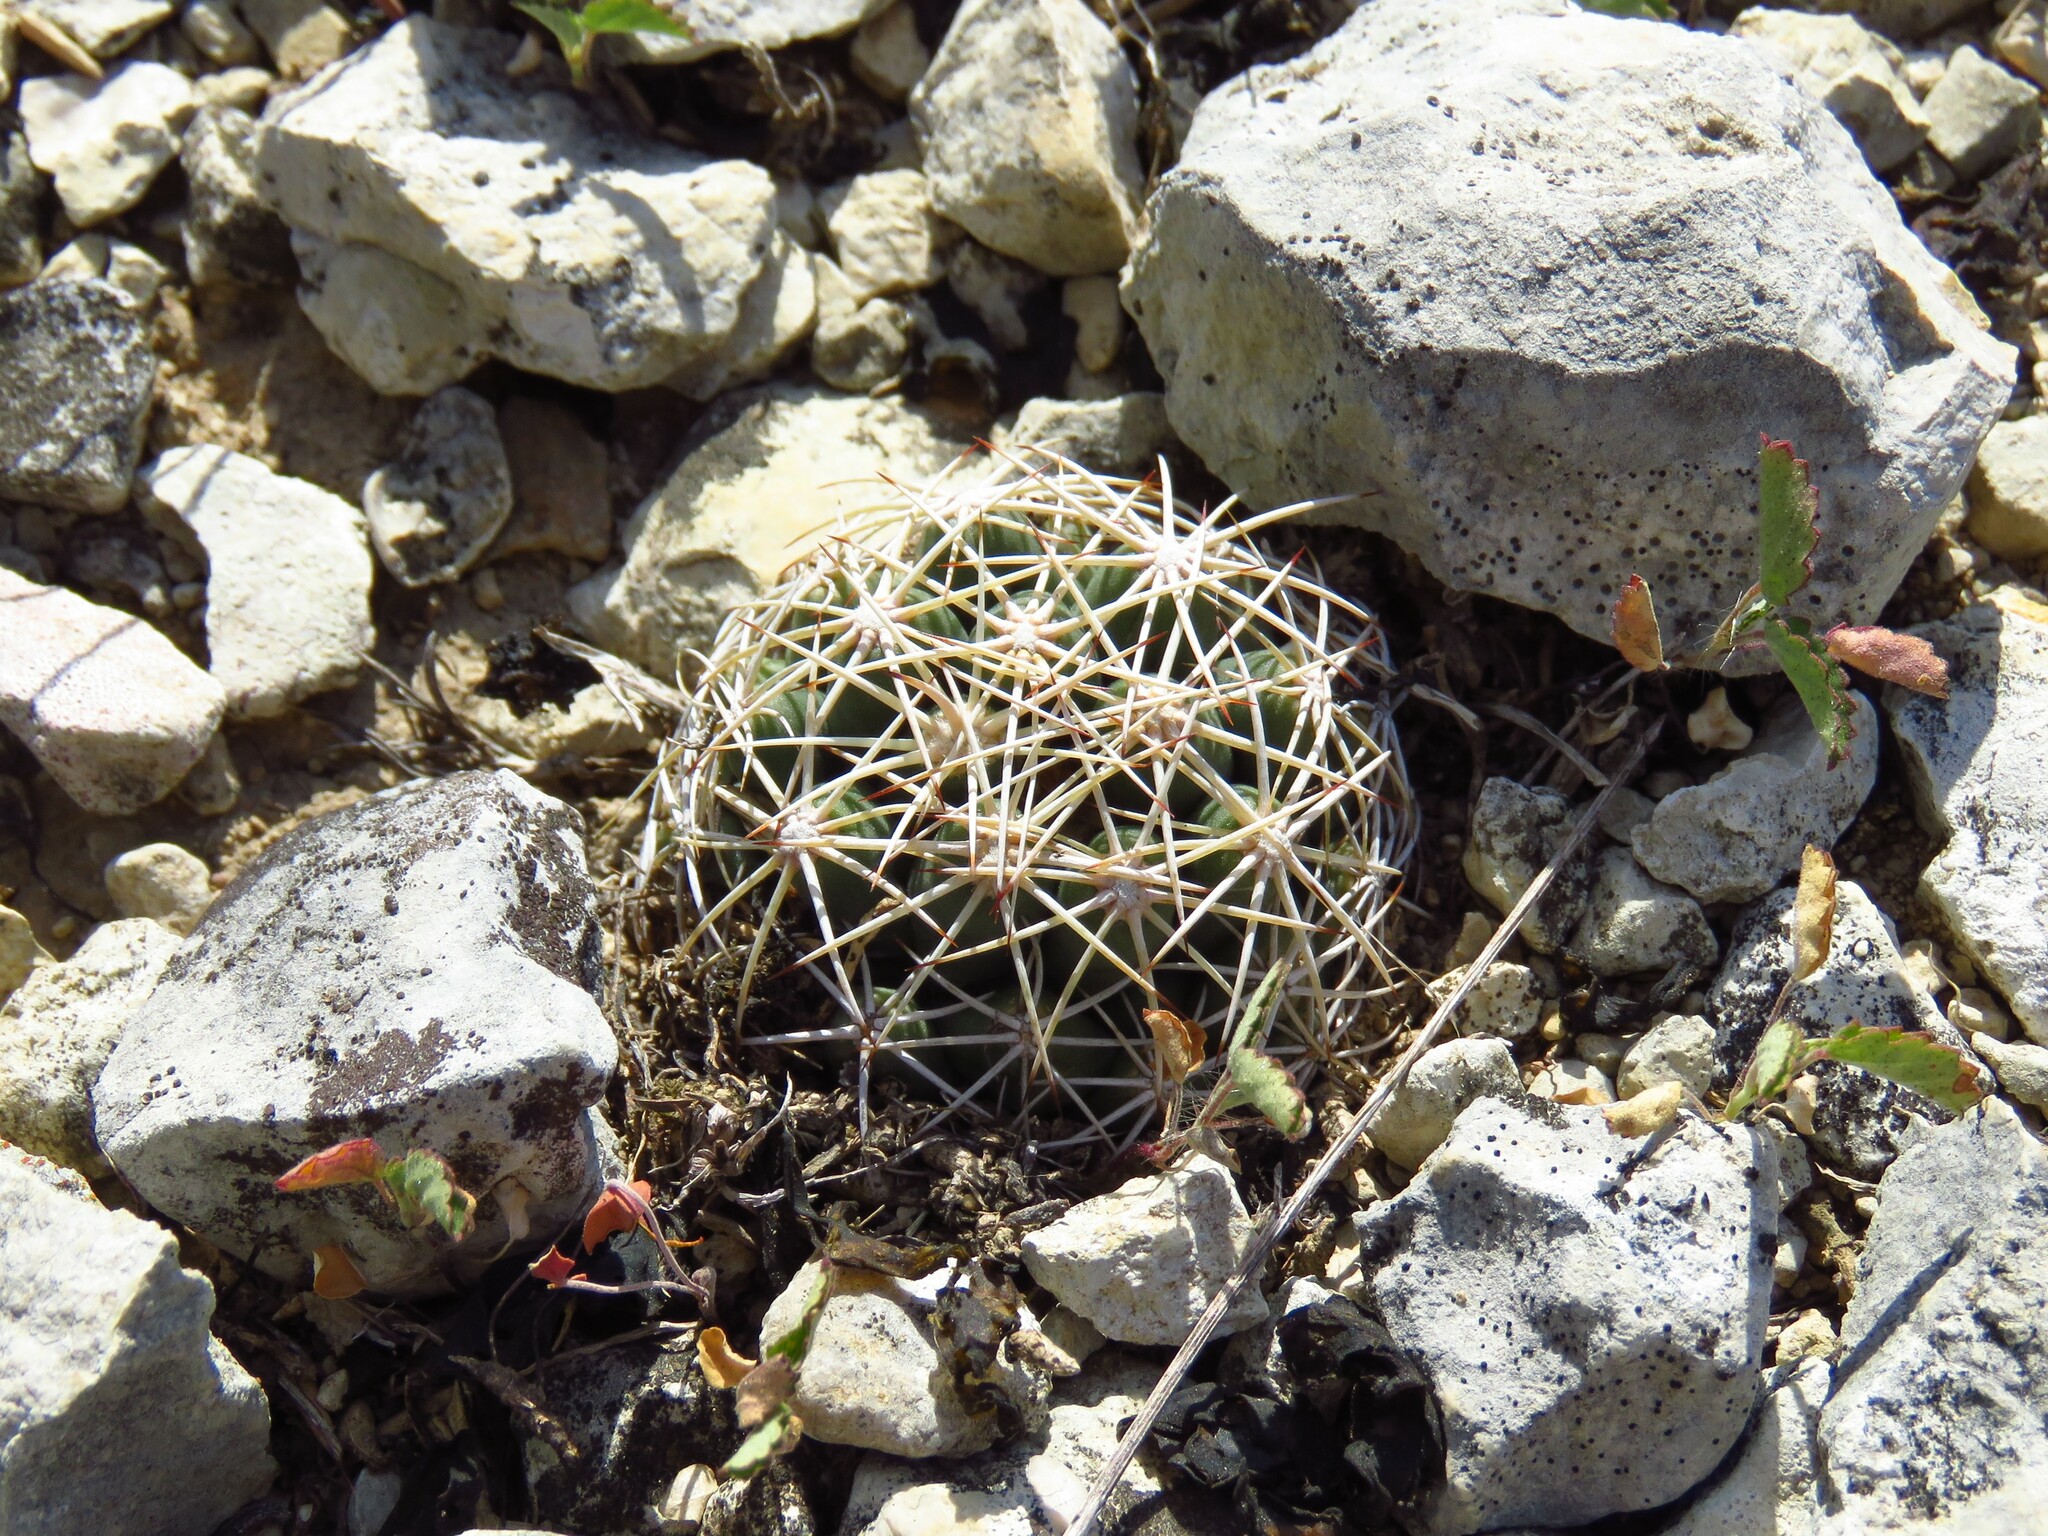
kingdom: Plantae
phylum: Tracheophyta
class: Magnoliopsida
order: Caryophyllales
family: Cactaceae
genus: Coryphantha
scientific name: Coryphantha sulcata
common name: Finger cactus
